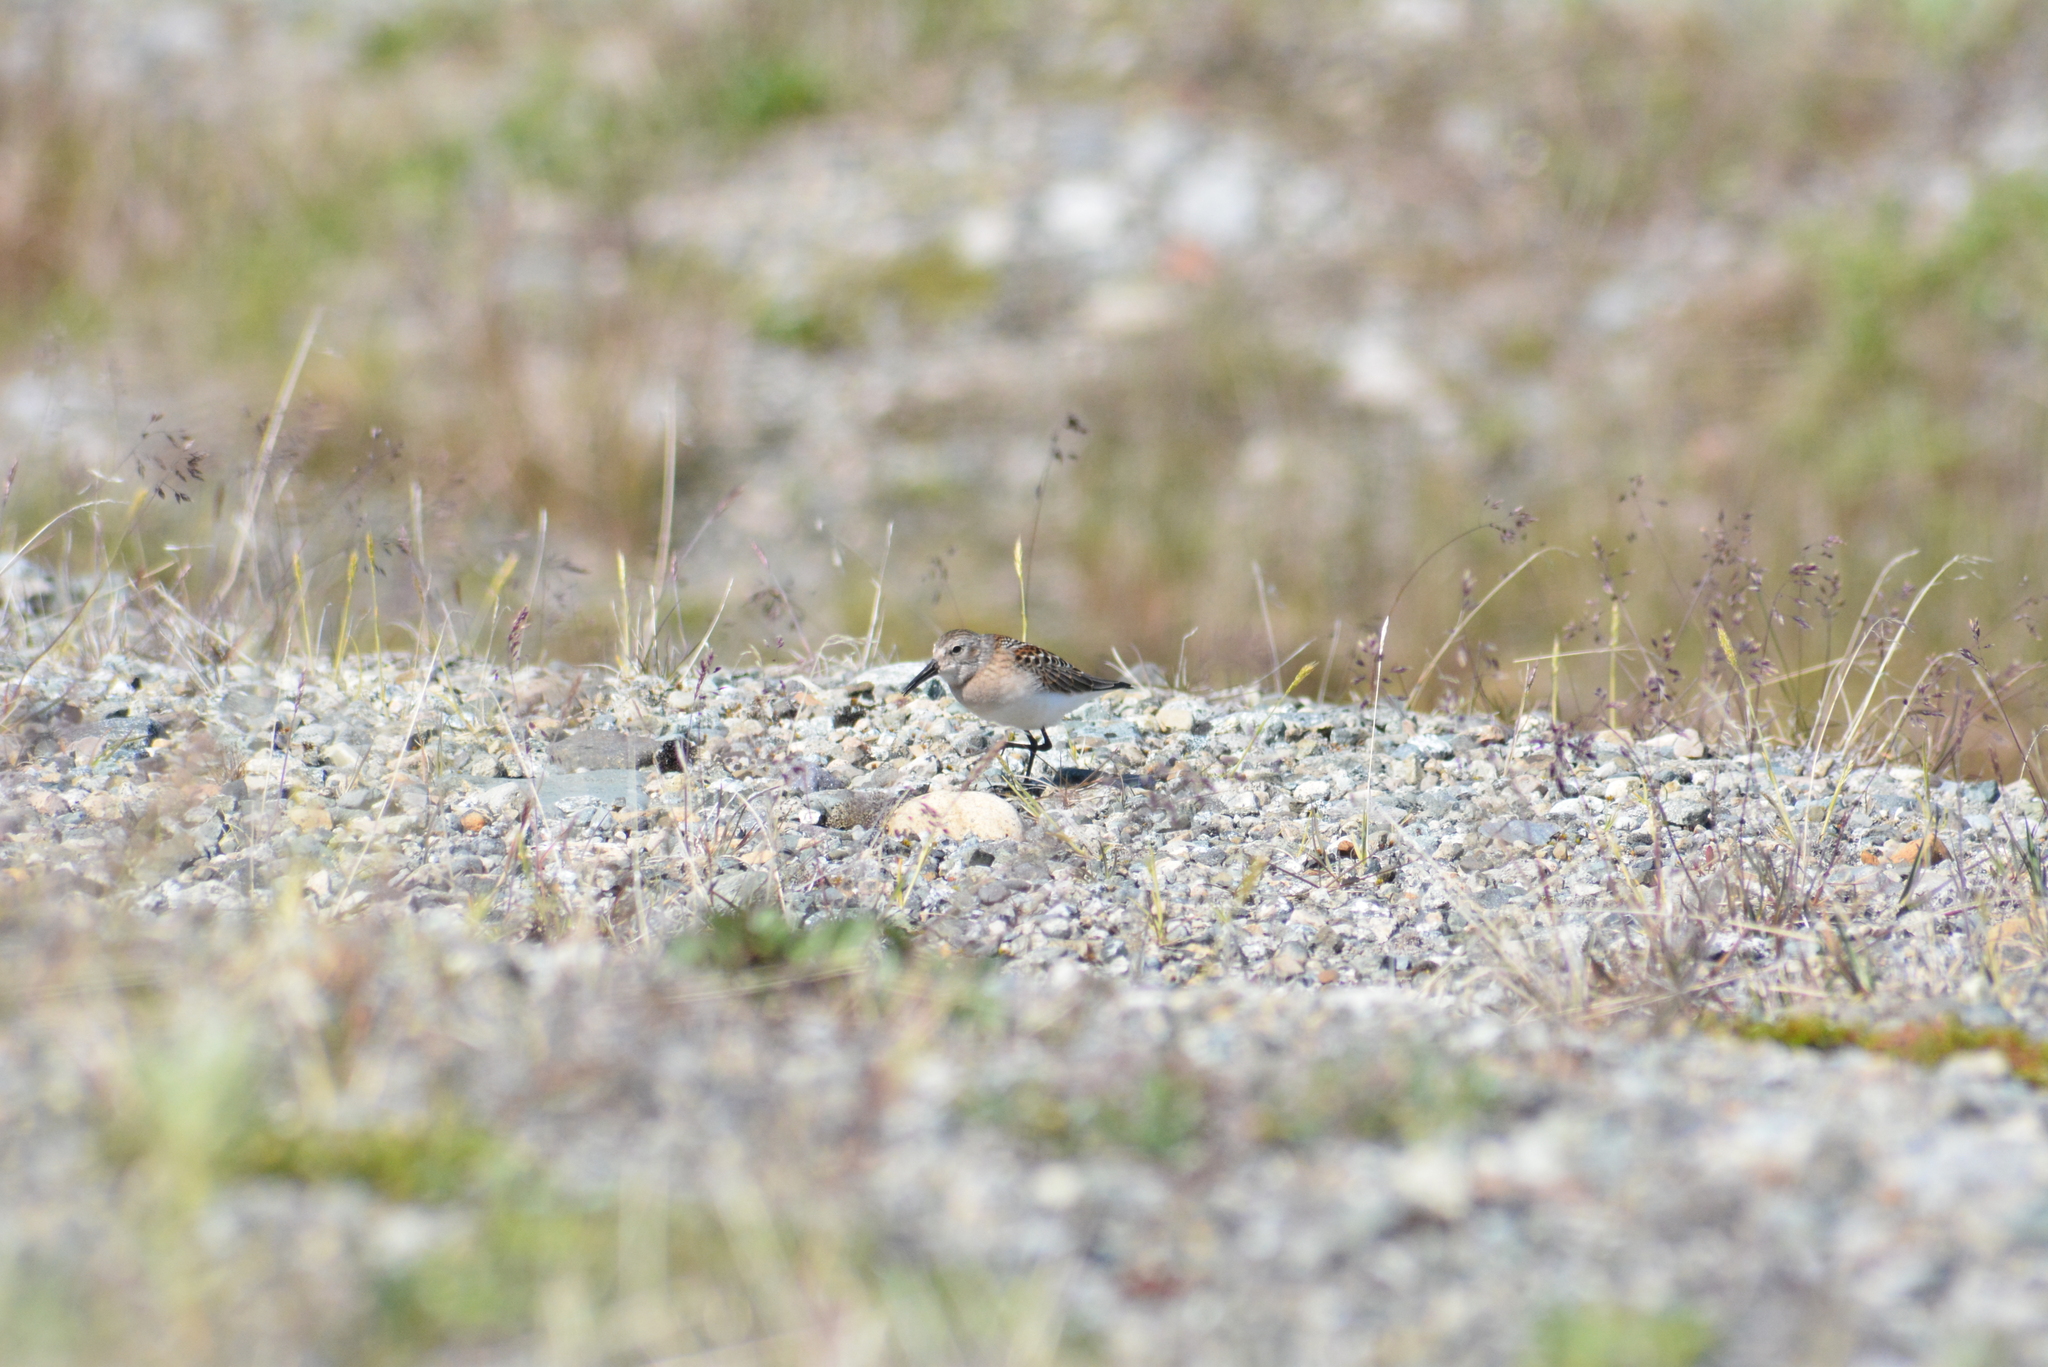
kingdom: Animalia
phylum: Chordata
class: Aves
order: Charadriiformes
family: Scolopacidae
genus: Calidris
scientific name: Calidris mauri
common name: Western sandpiper
